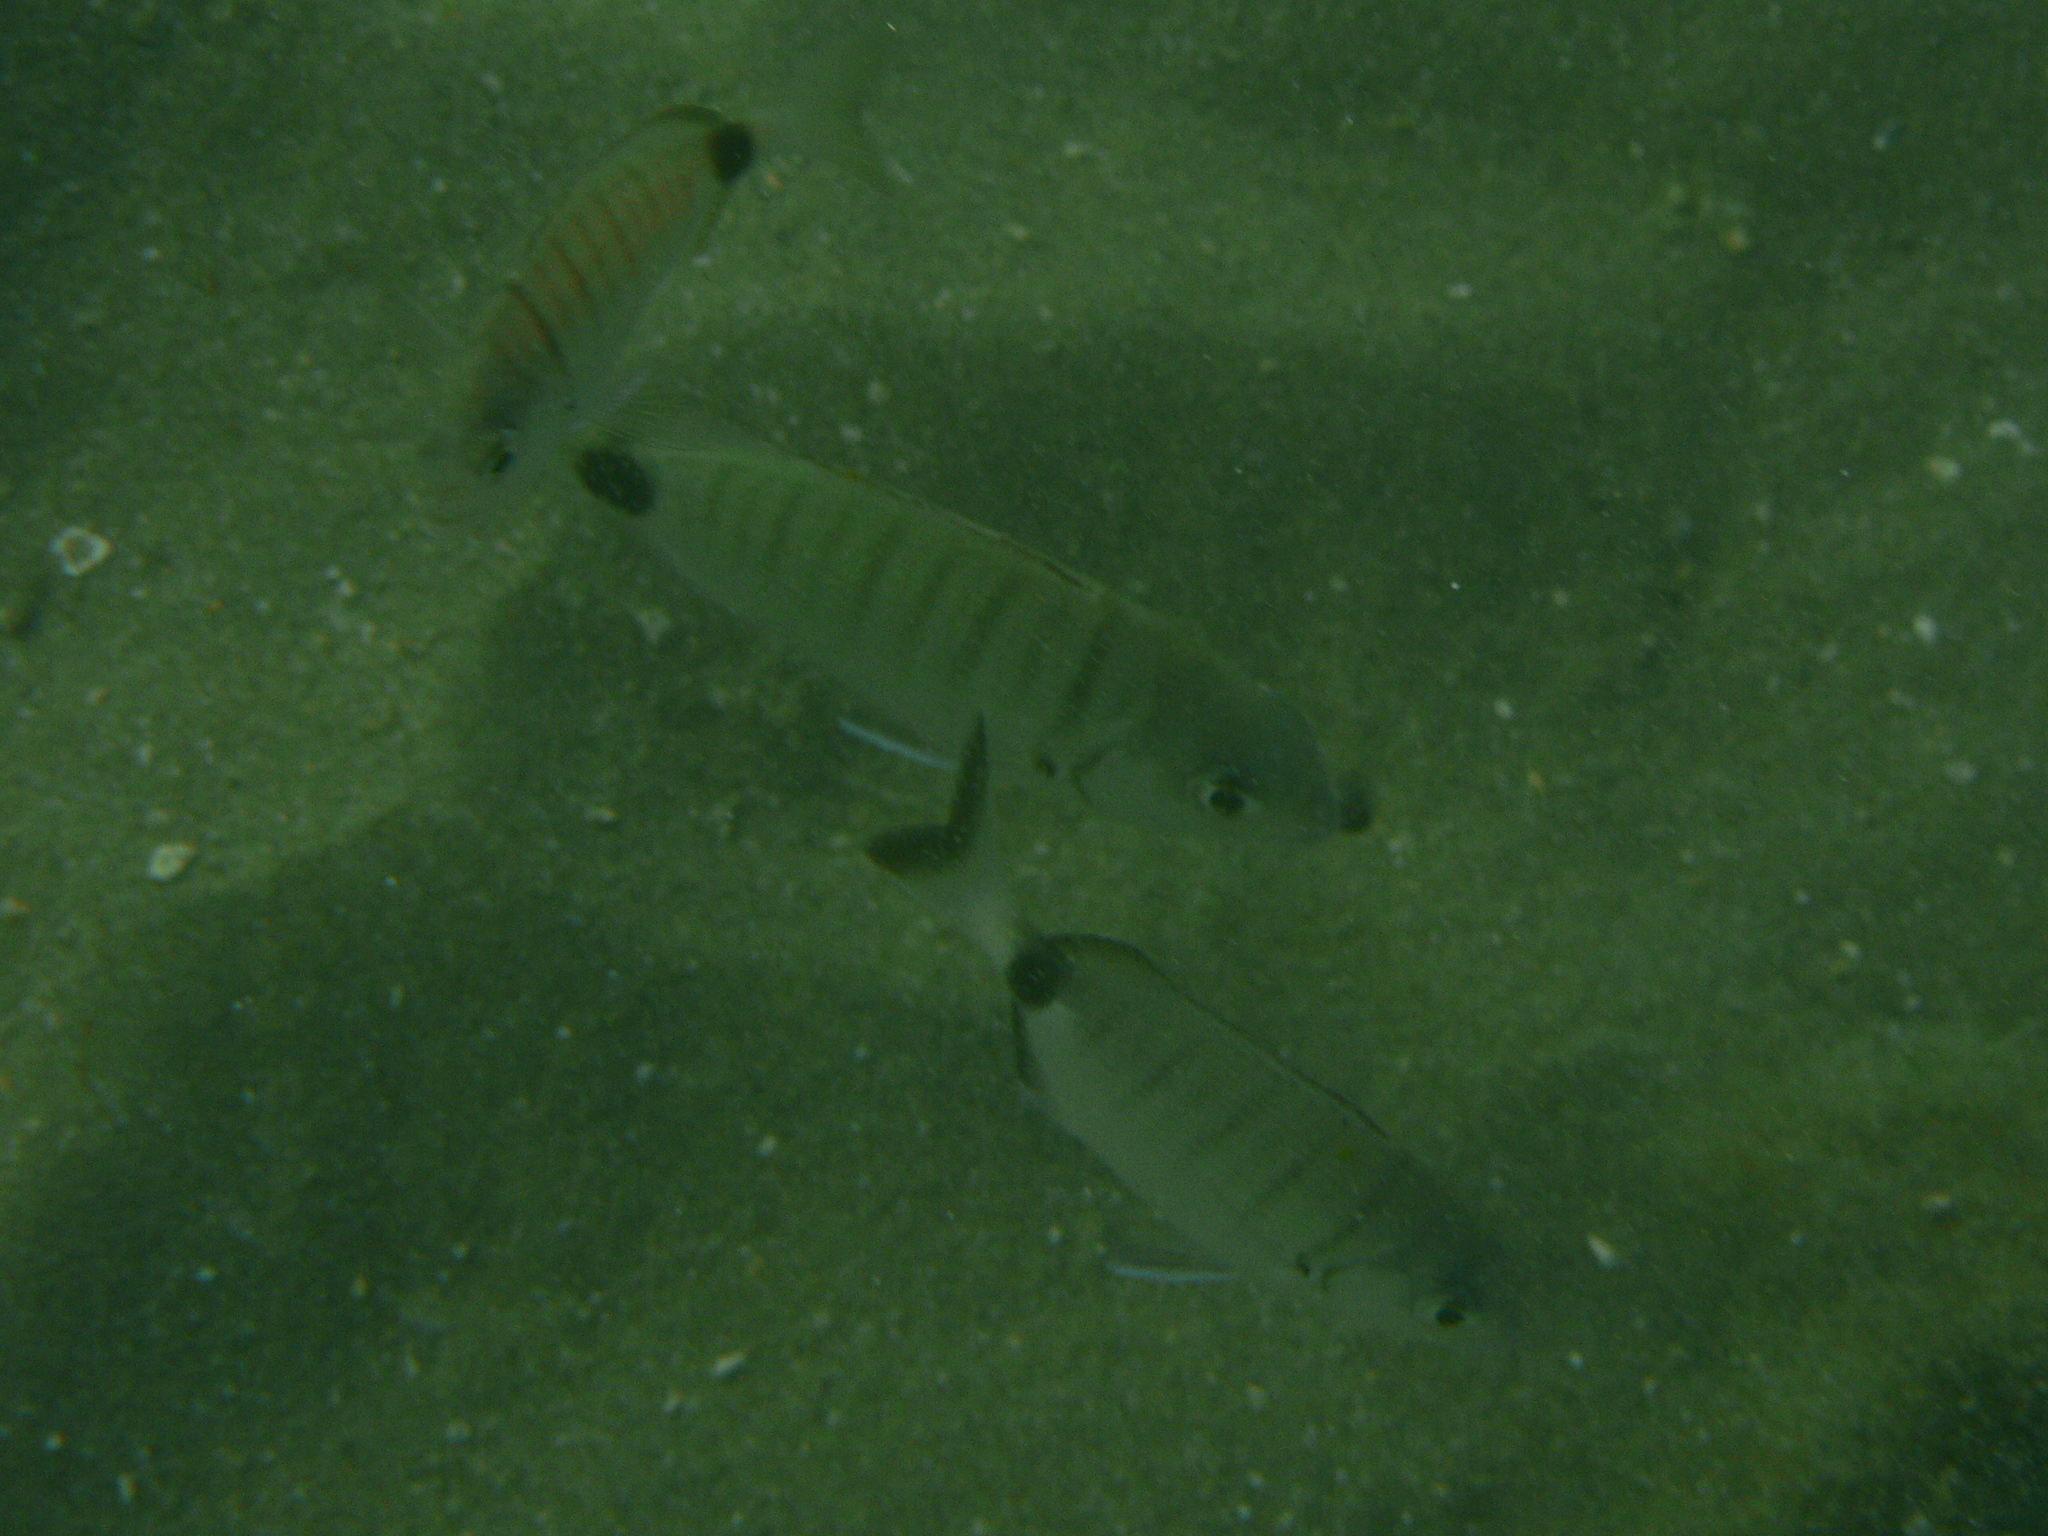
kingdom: Animalia
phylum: Chordata
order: Perciformes
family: Sparidae
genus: Diplodus
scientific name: Diplodus sargus
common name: White seabream
